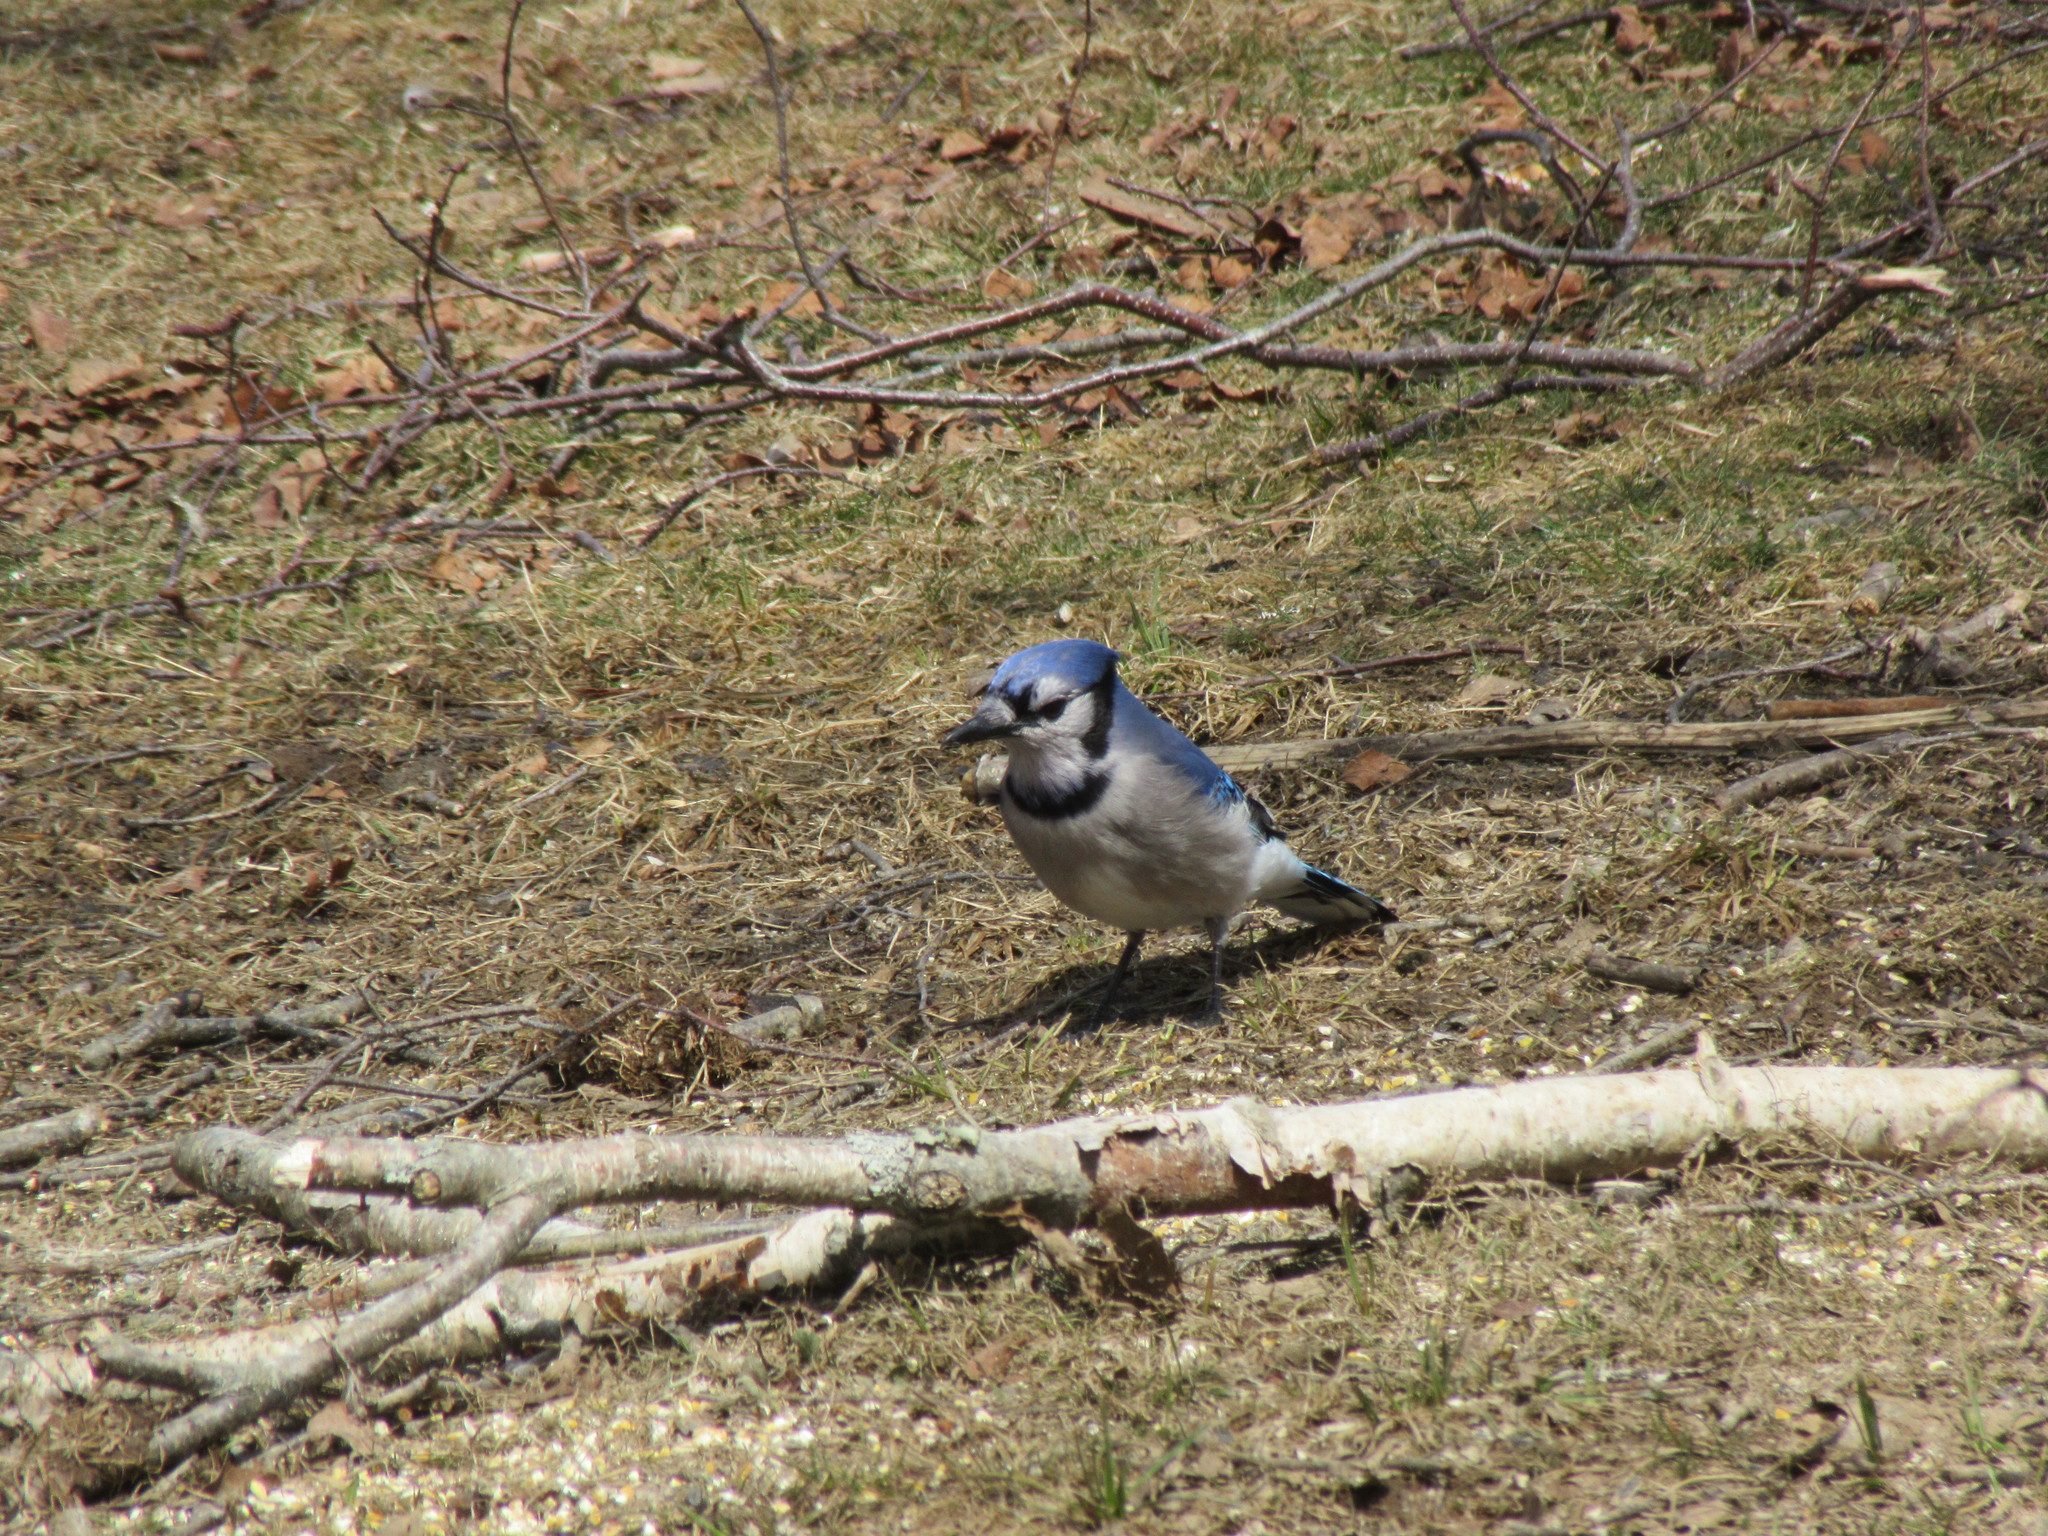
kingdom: Animalia
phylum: Chordata
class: Aves
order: Passeriformes
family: Corvidae
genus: Cyanocitta
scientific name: Cyanocitta cristata
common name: Blue jay
